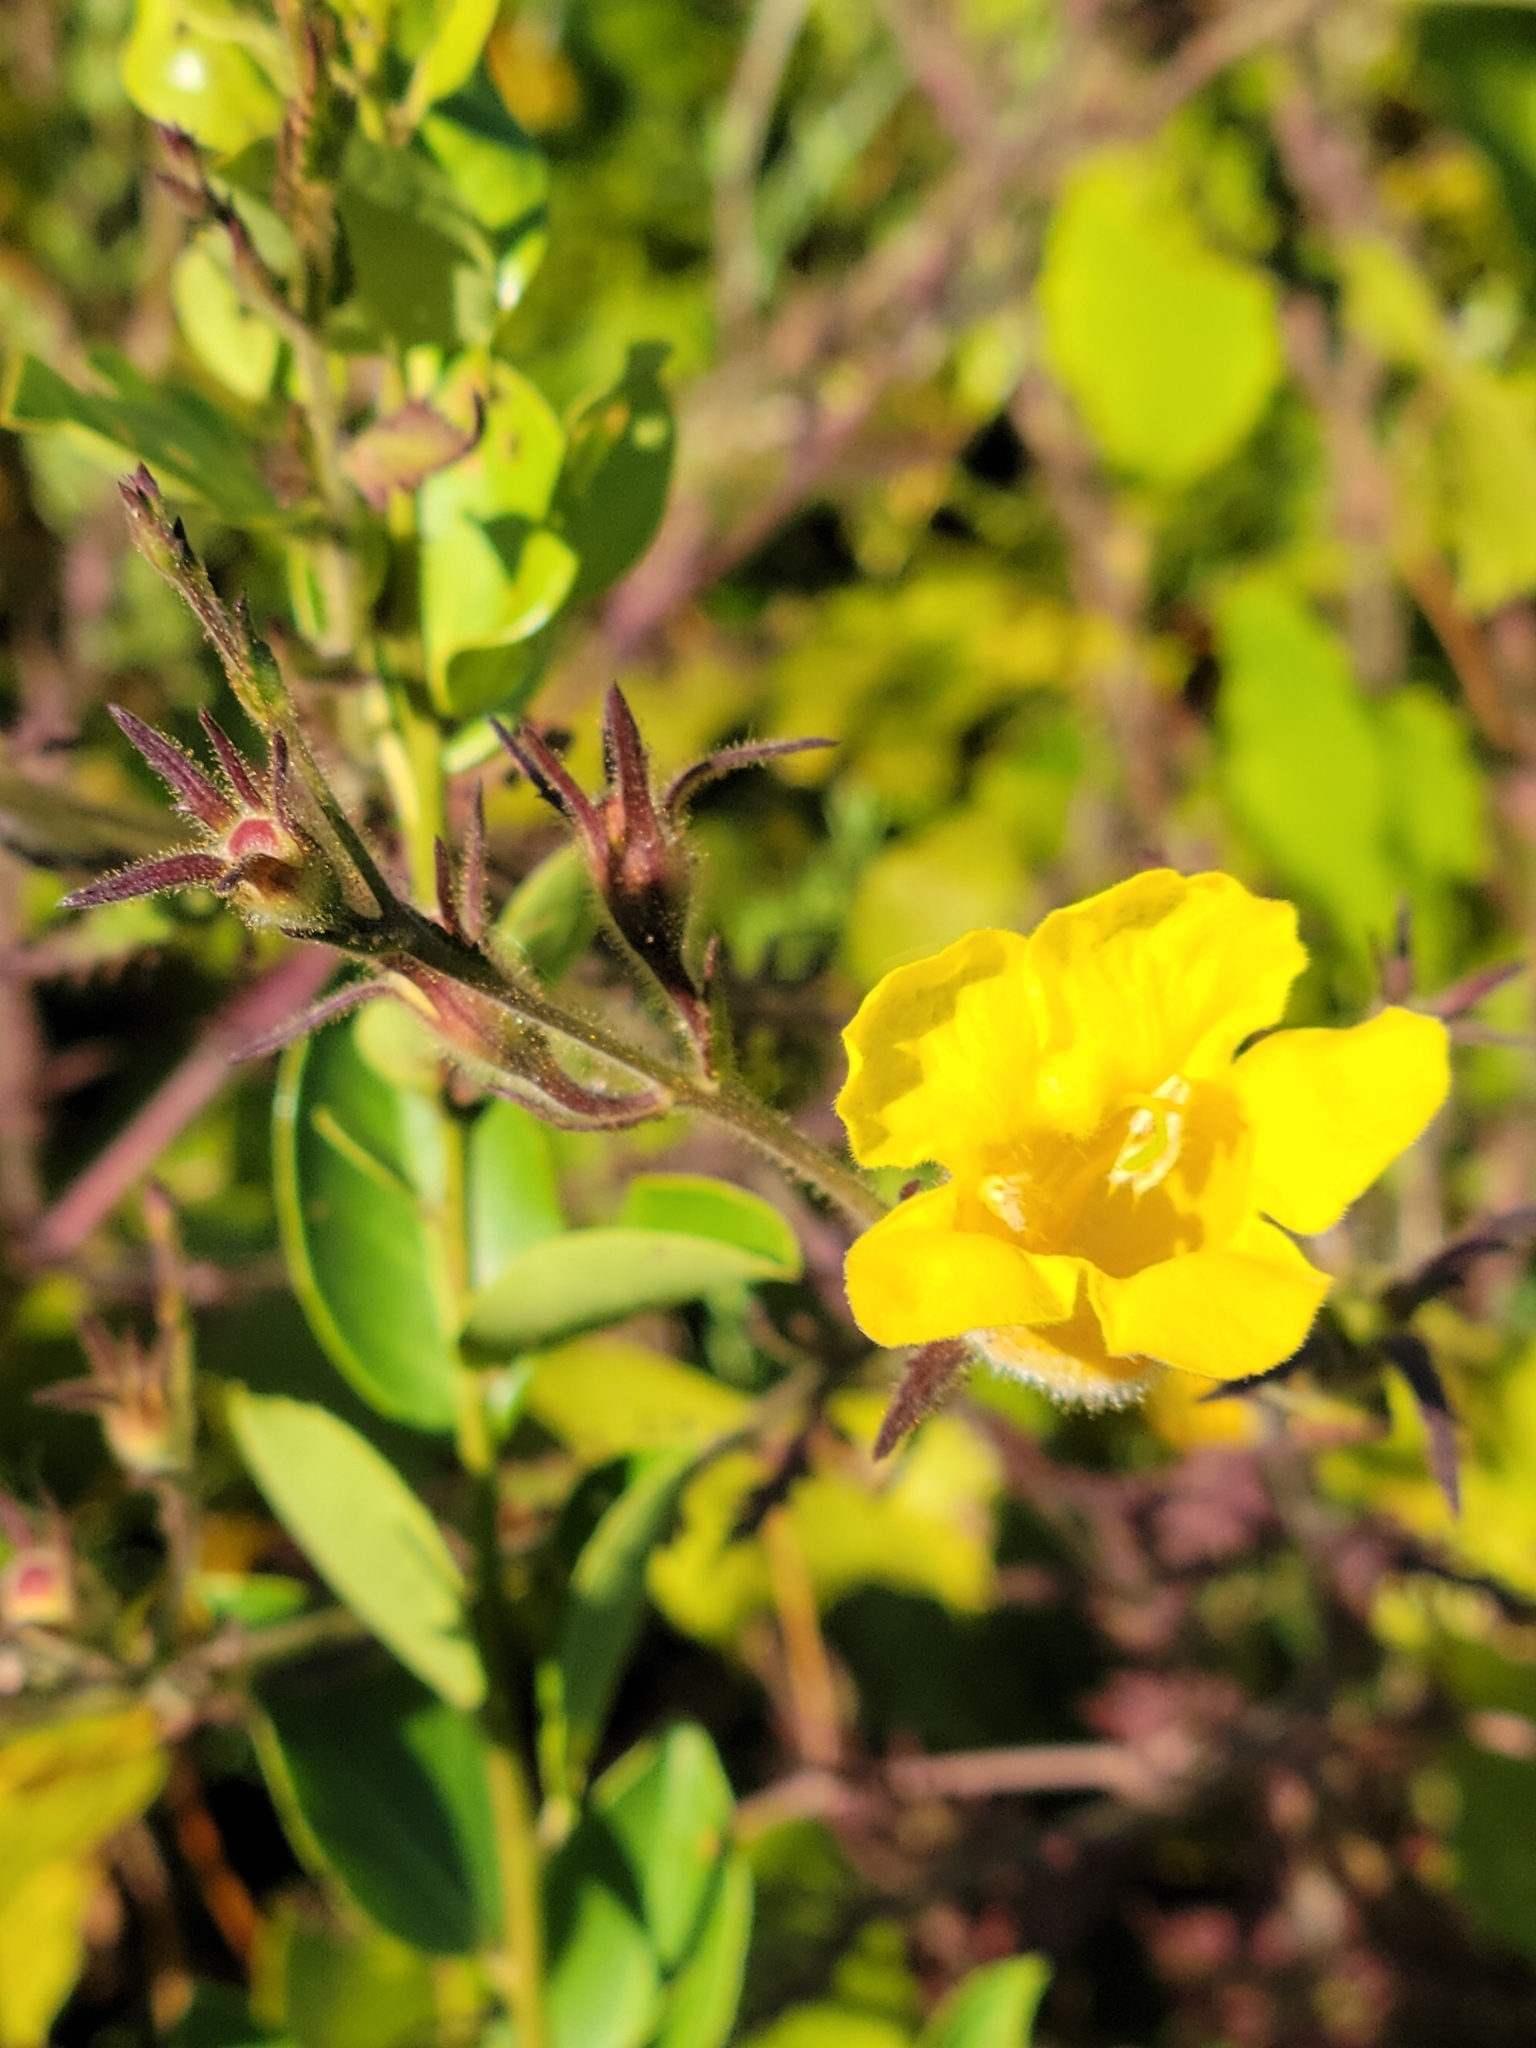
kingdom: Plantae
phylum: Tracheophyta
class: Magnoliopsida
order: Lamiales
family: Orobanchaceae
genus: Aureolaria
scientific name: Aureolaria pectinata
